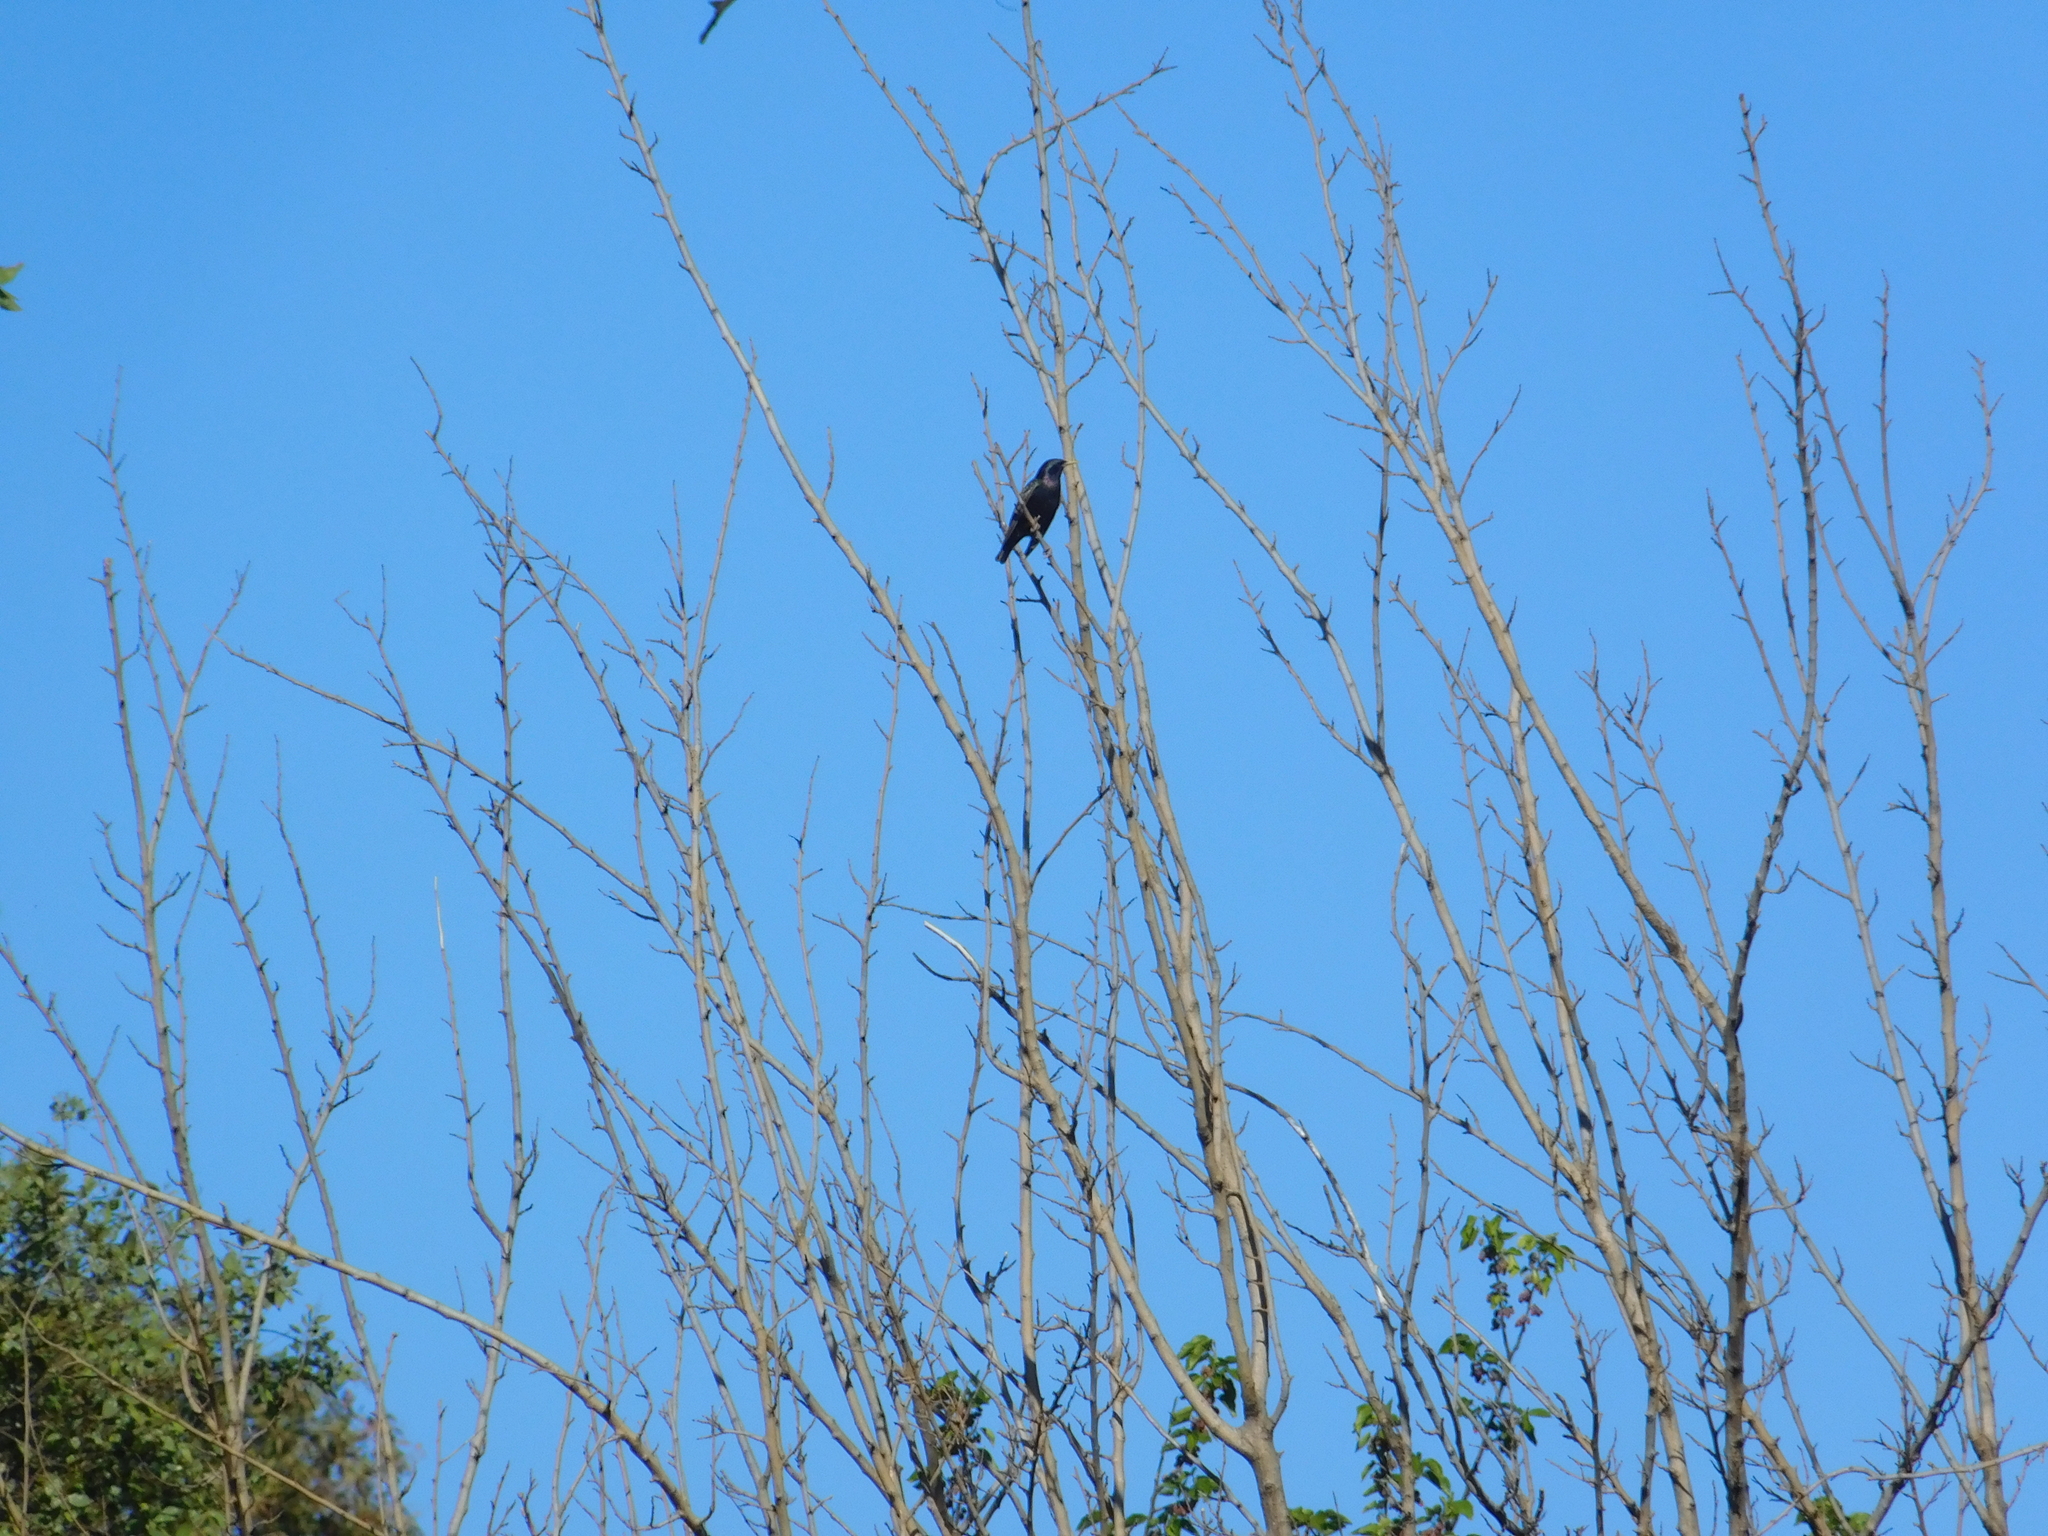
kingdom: Animalia
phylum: Chordata
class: Aves
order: Passeriformes
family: Sturnidae
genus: Sturnus
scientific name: Sturnus vulgaris
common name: Common starling
